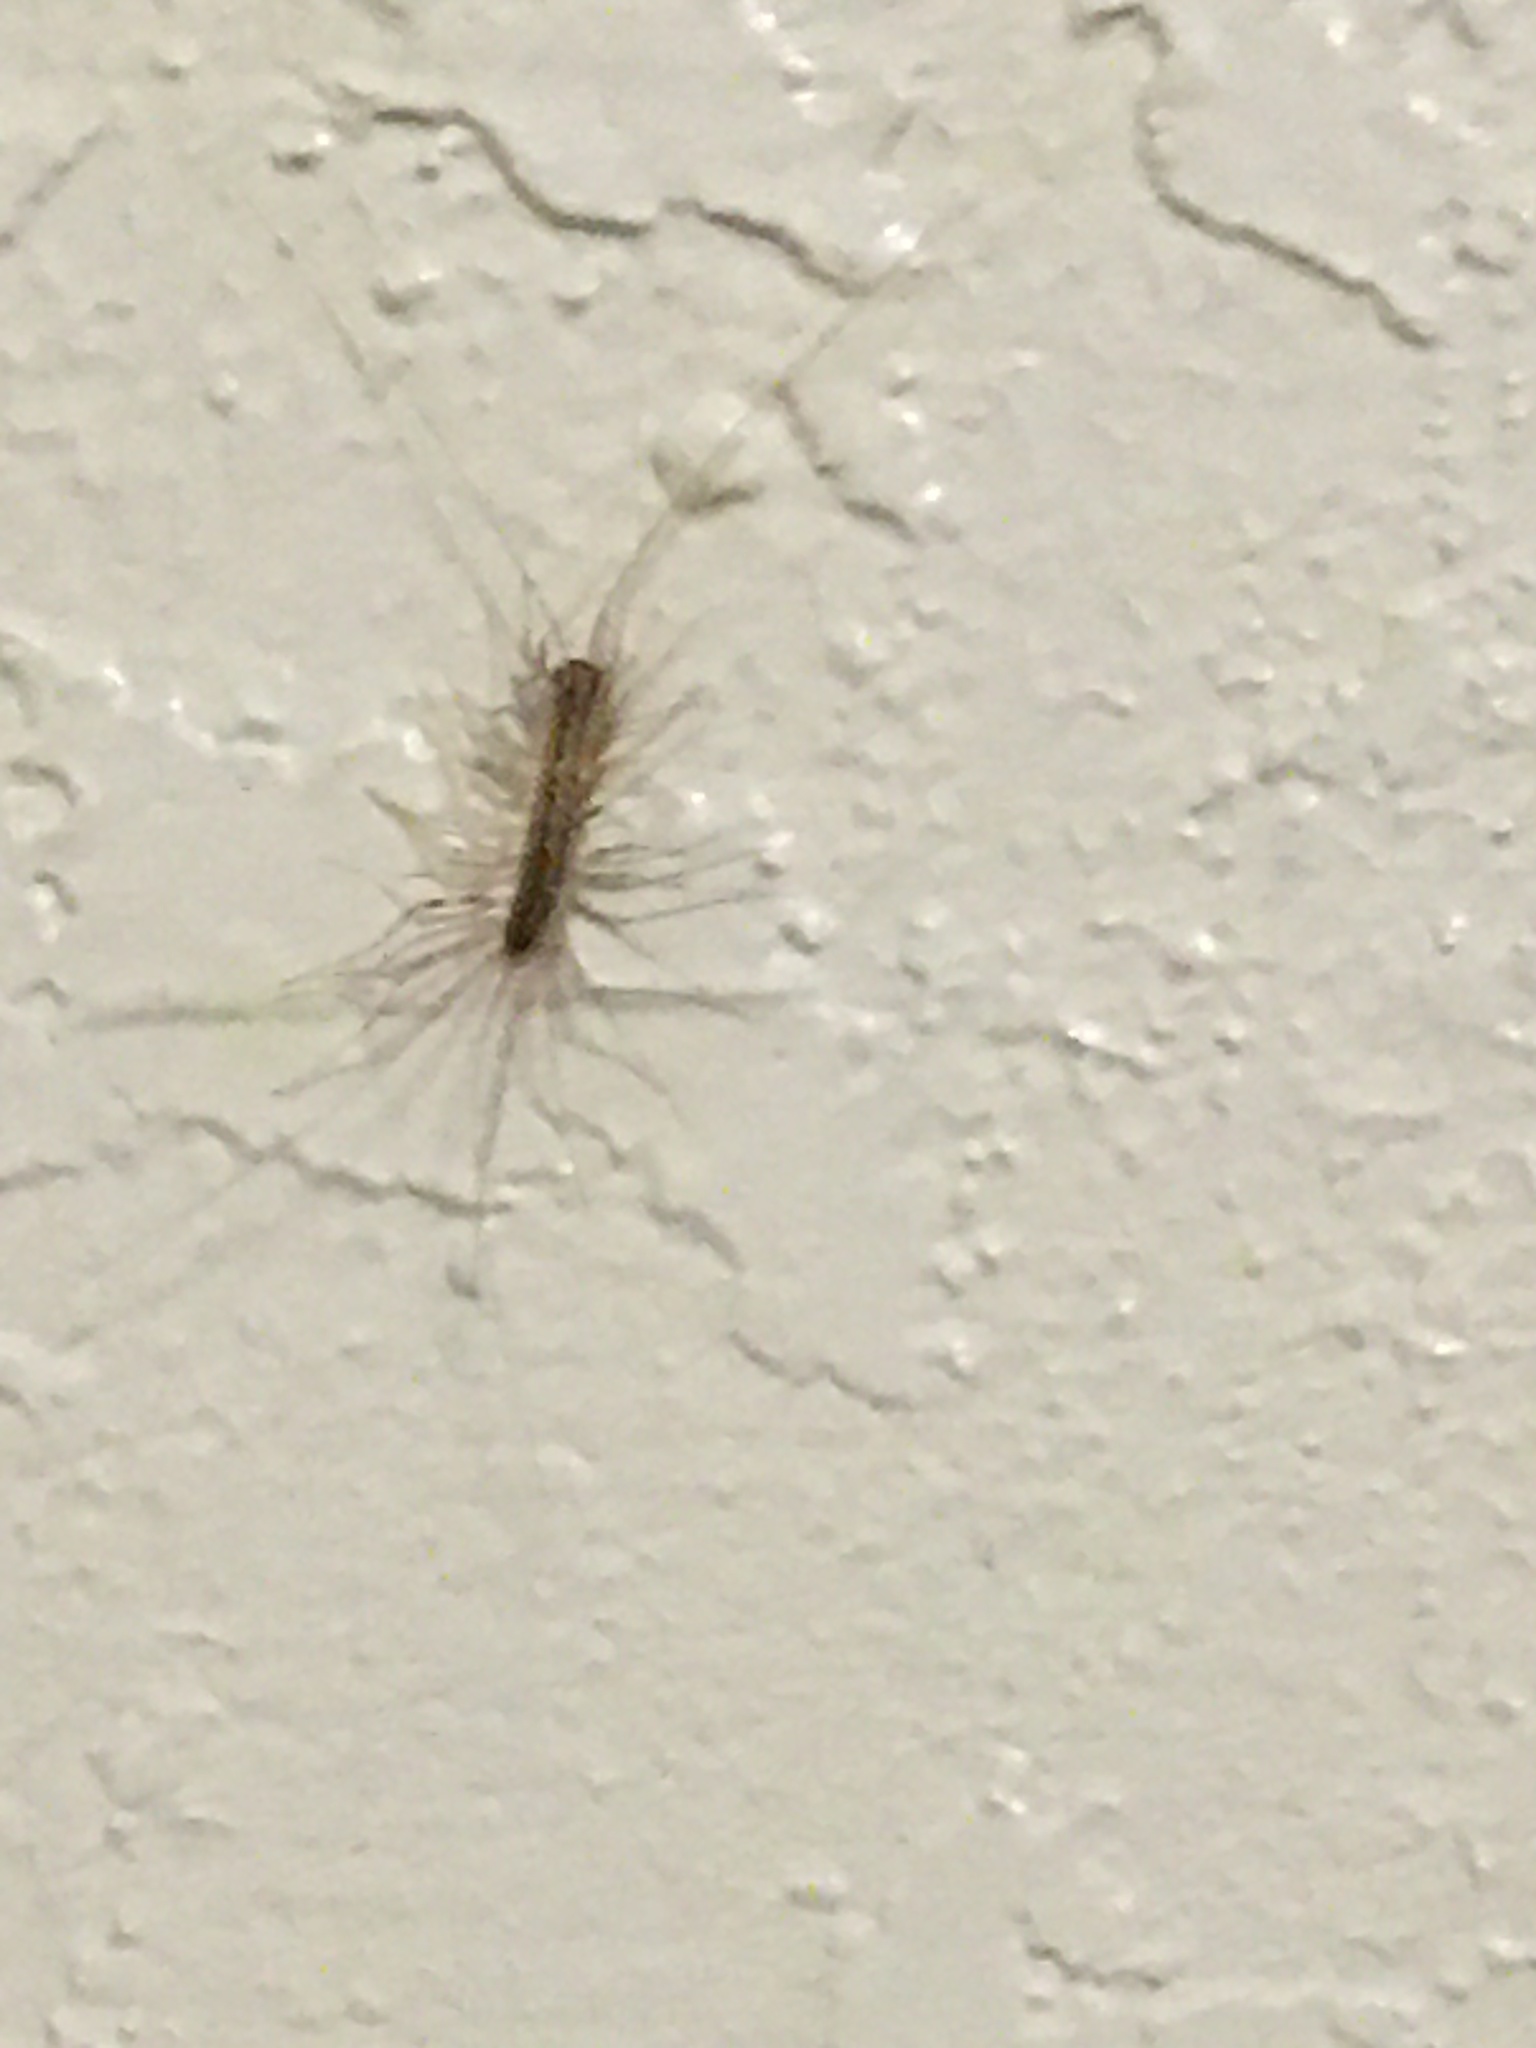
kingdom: Animalia
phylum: Arthropoda
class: Chilopoda
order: Scutigeromorpha
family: Scutigeridae
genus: Scutigera
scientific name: Scutigera coleoptrata
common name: House centipede
